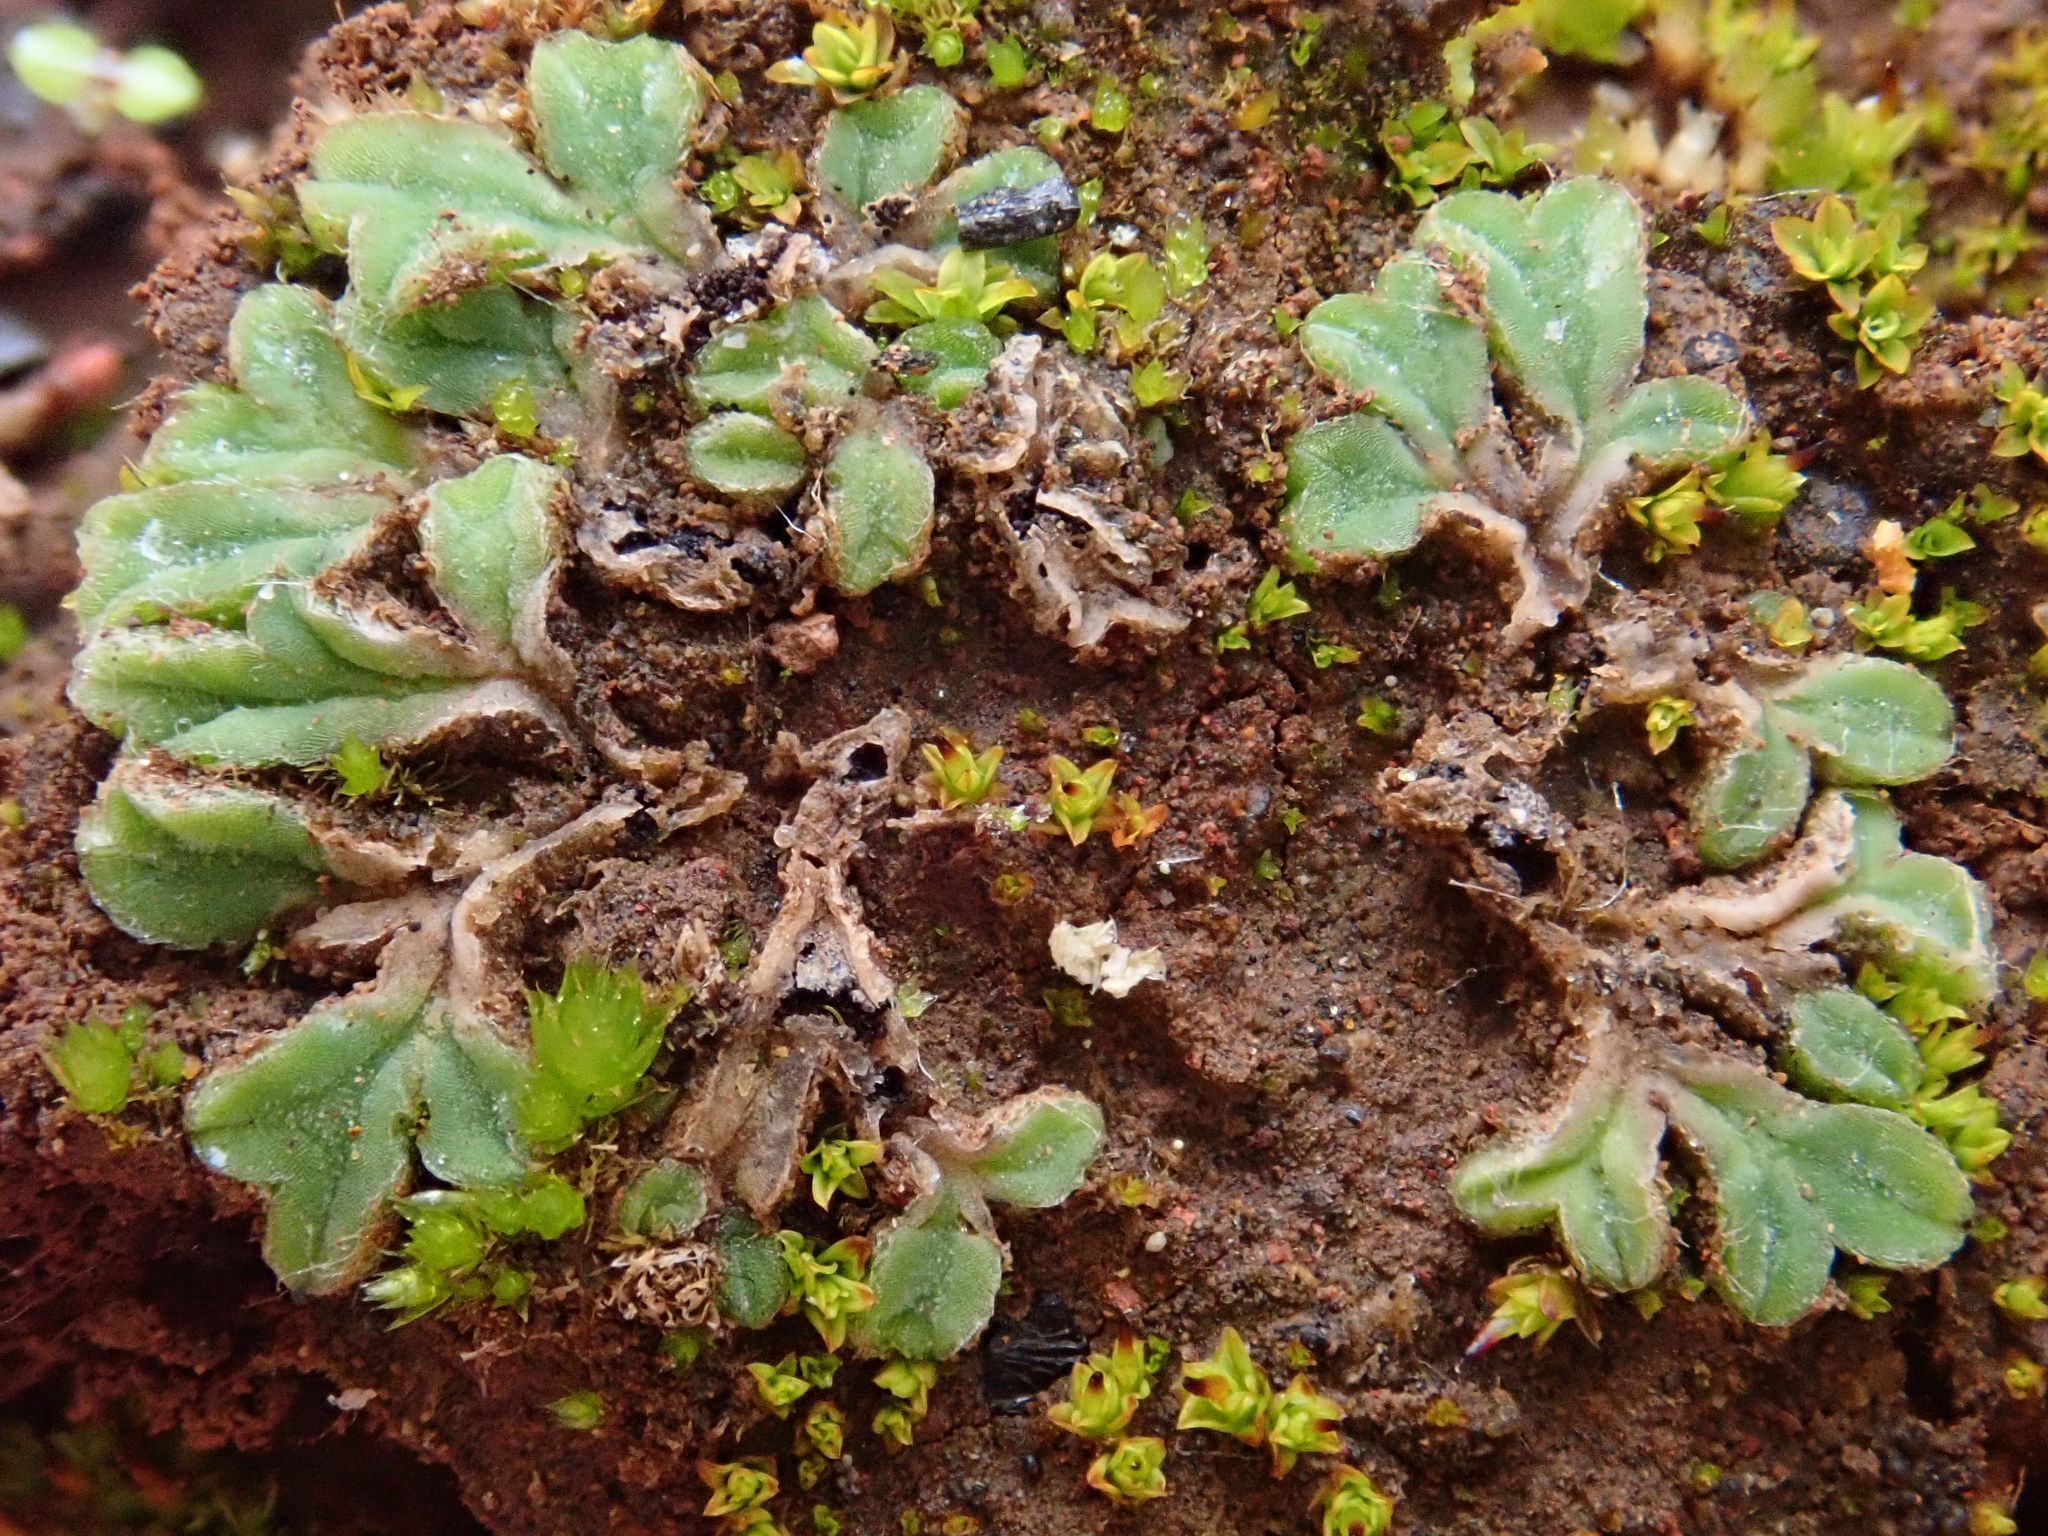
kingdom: Plantae
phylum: Marchantiophyta
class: Marchantiopsida
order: Marchantiales
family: Ricciaceae
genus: Riccia
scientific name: Riccia sorocarpa
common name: Common crystalwort
